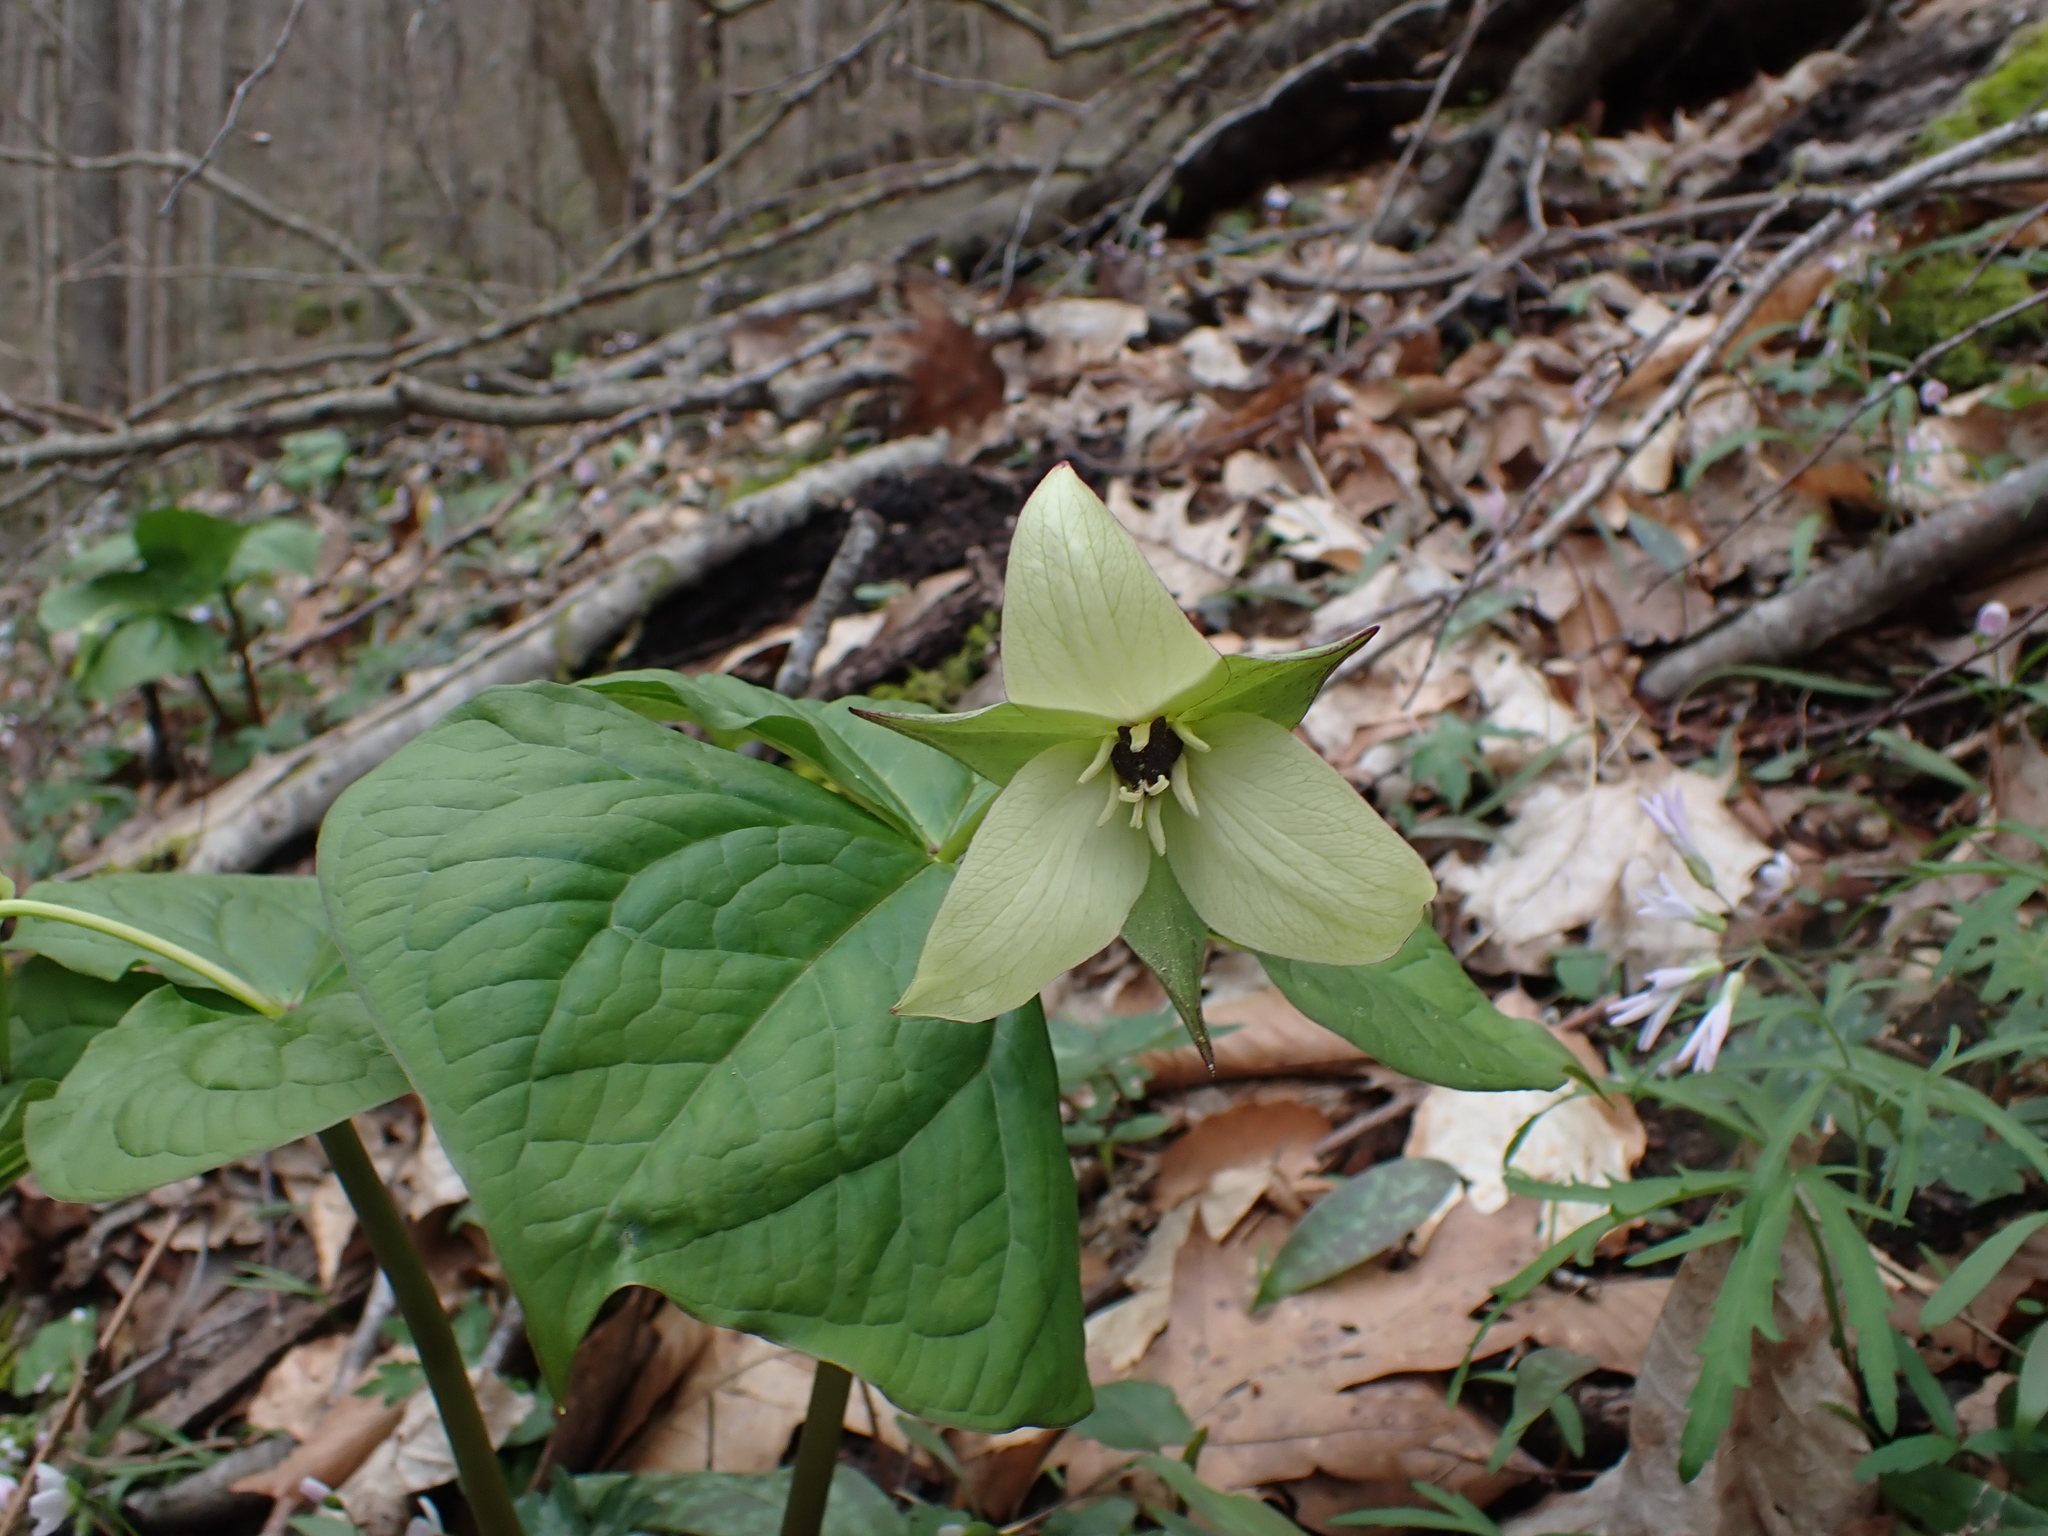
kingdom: Plantae
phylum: Tracheophyta
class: Liliopsida
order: Liliales
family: Melanthiaceae
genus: Trillium
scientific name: Trillium erectum
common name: Purple trillium
